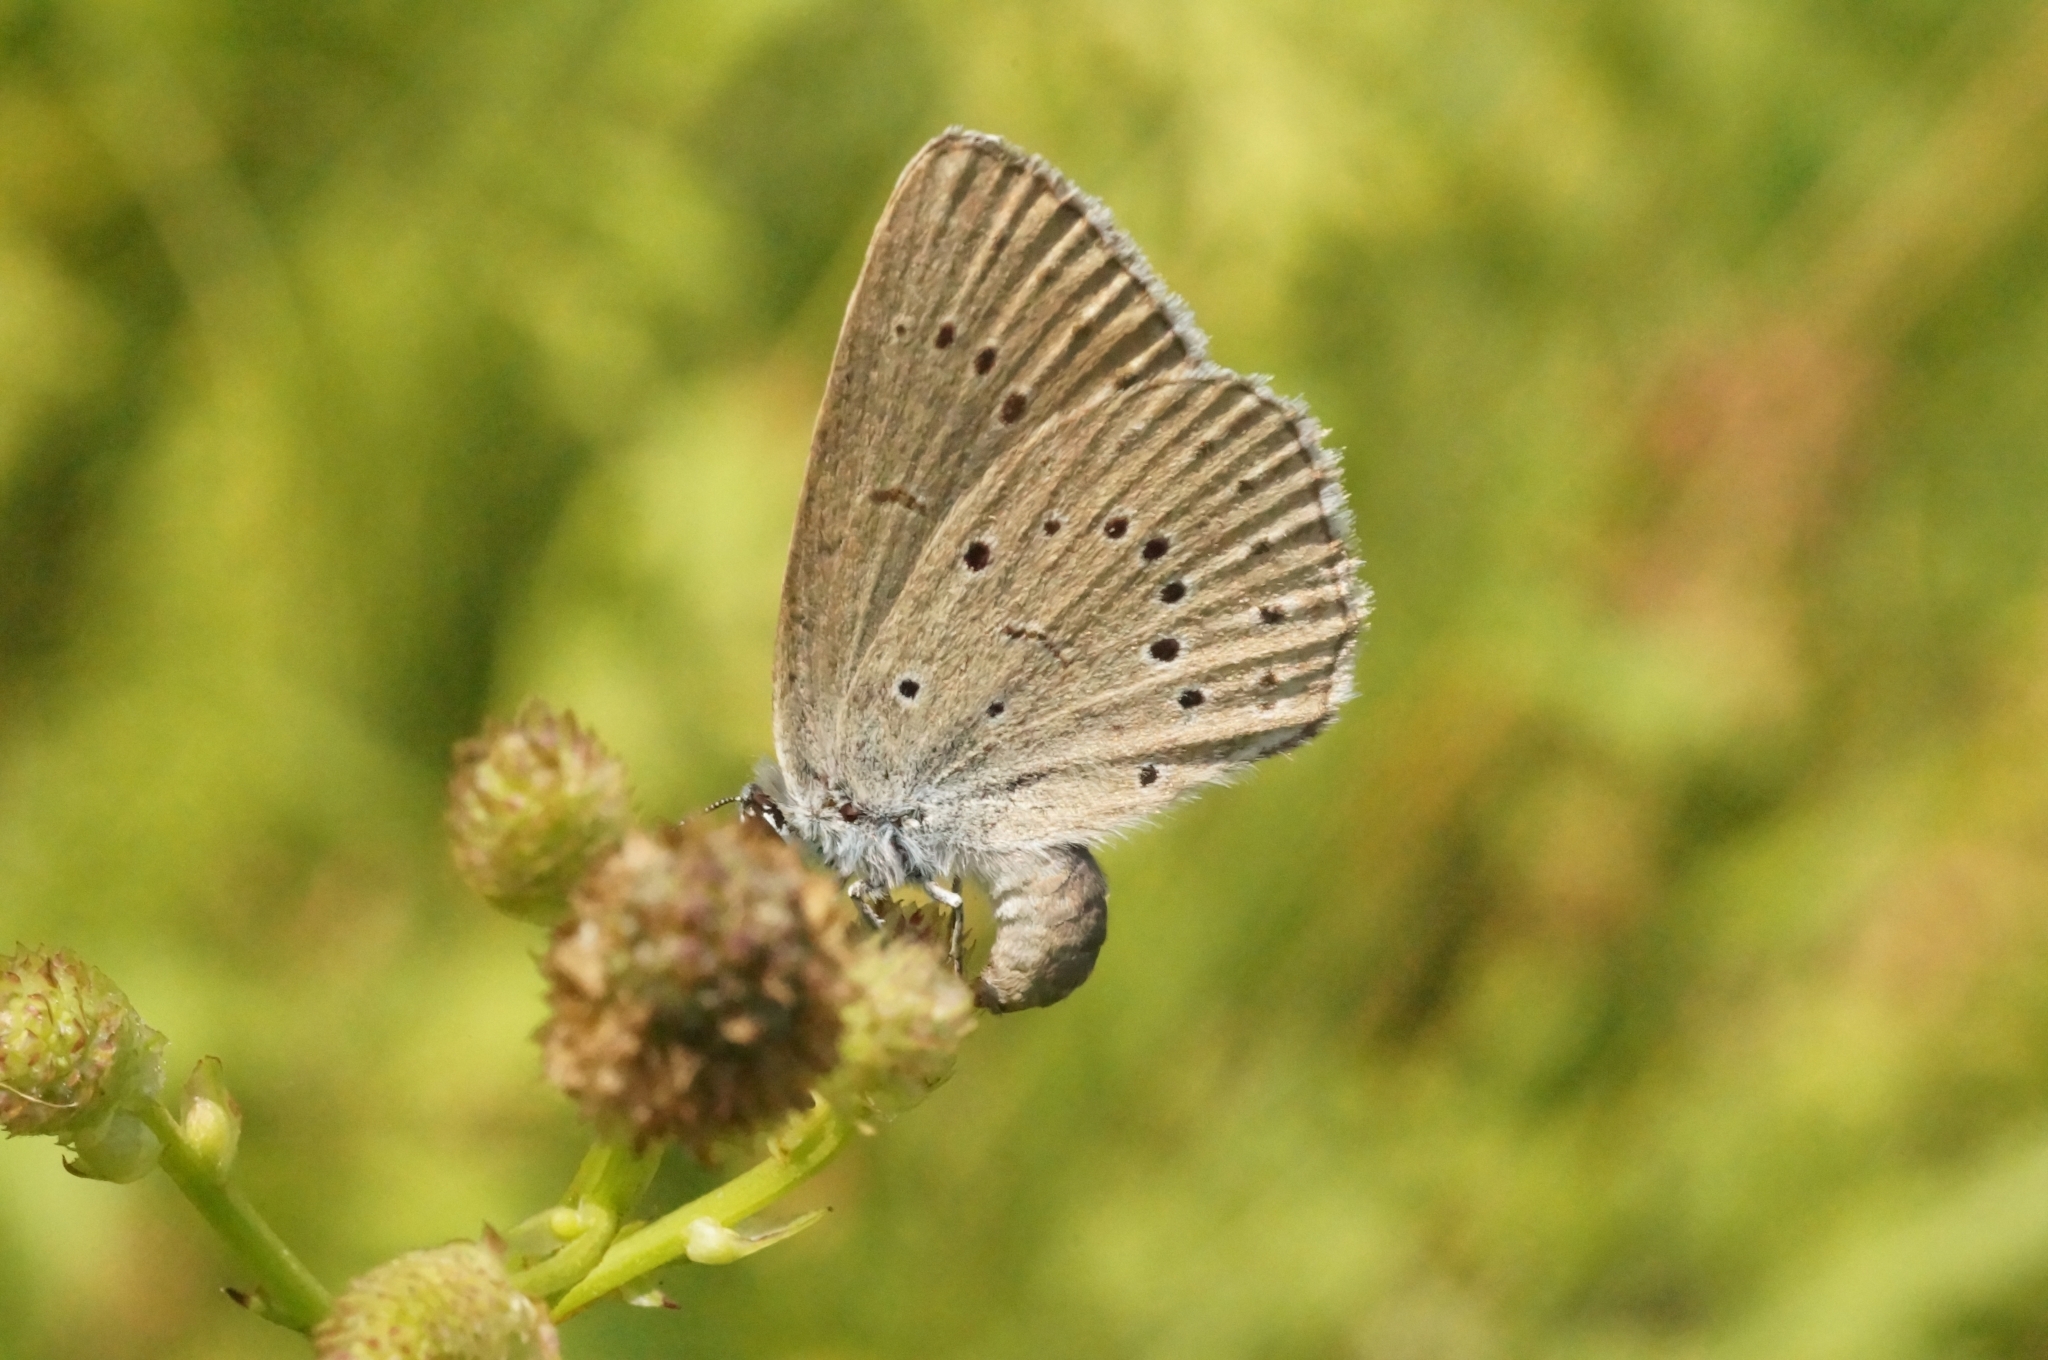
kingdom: Animalia
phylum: Arthropoda
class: Insecta
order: Lepidoptera
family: Lycaenidae
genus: Phengaris
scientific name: Phengaris teleius
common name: Scarce large blue
